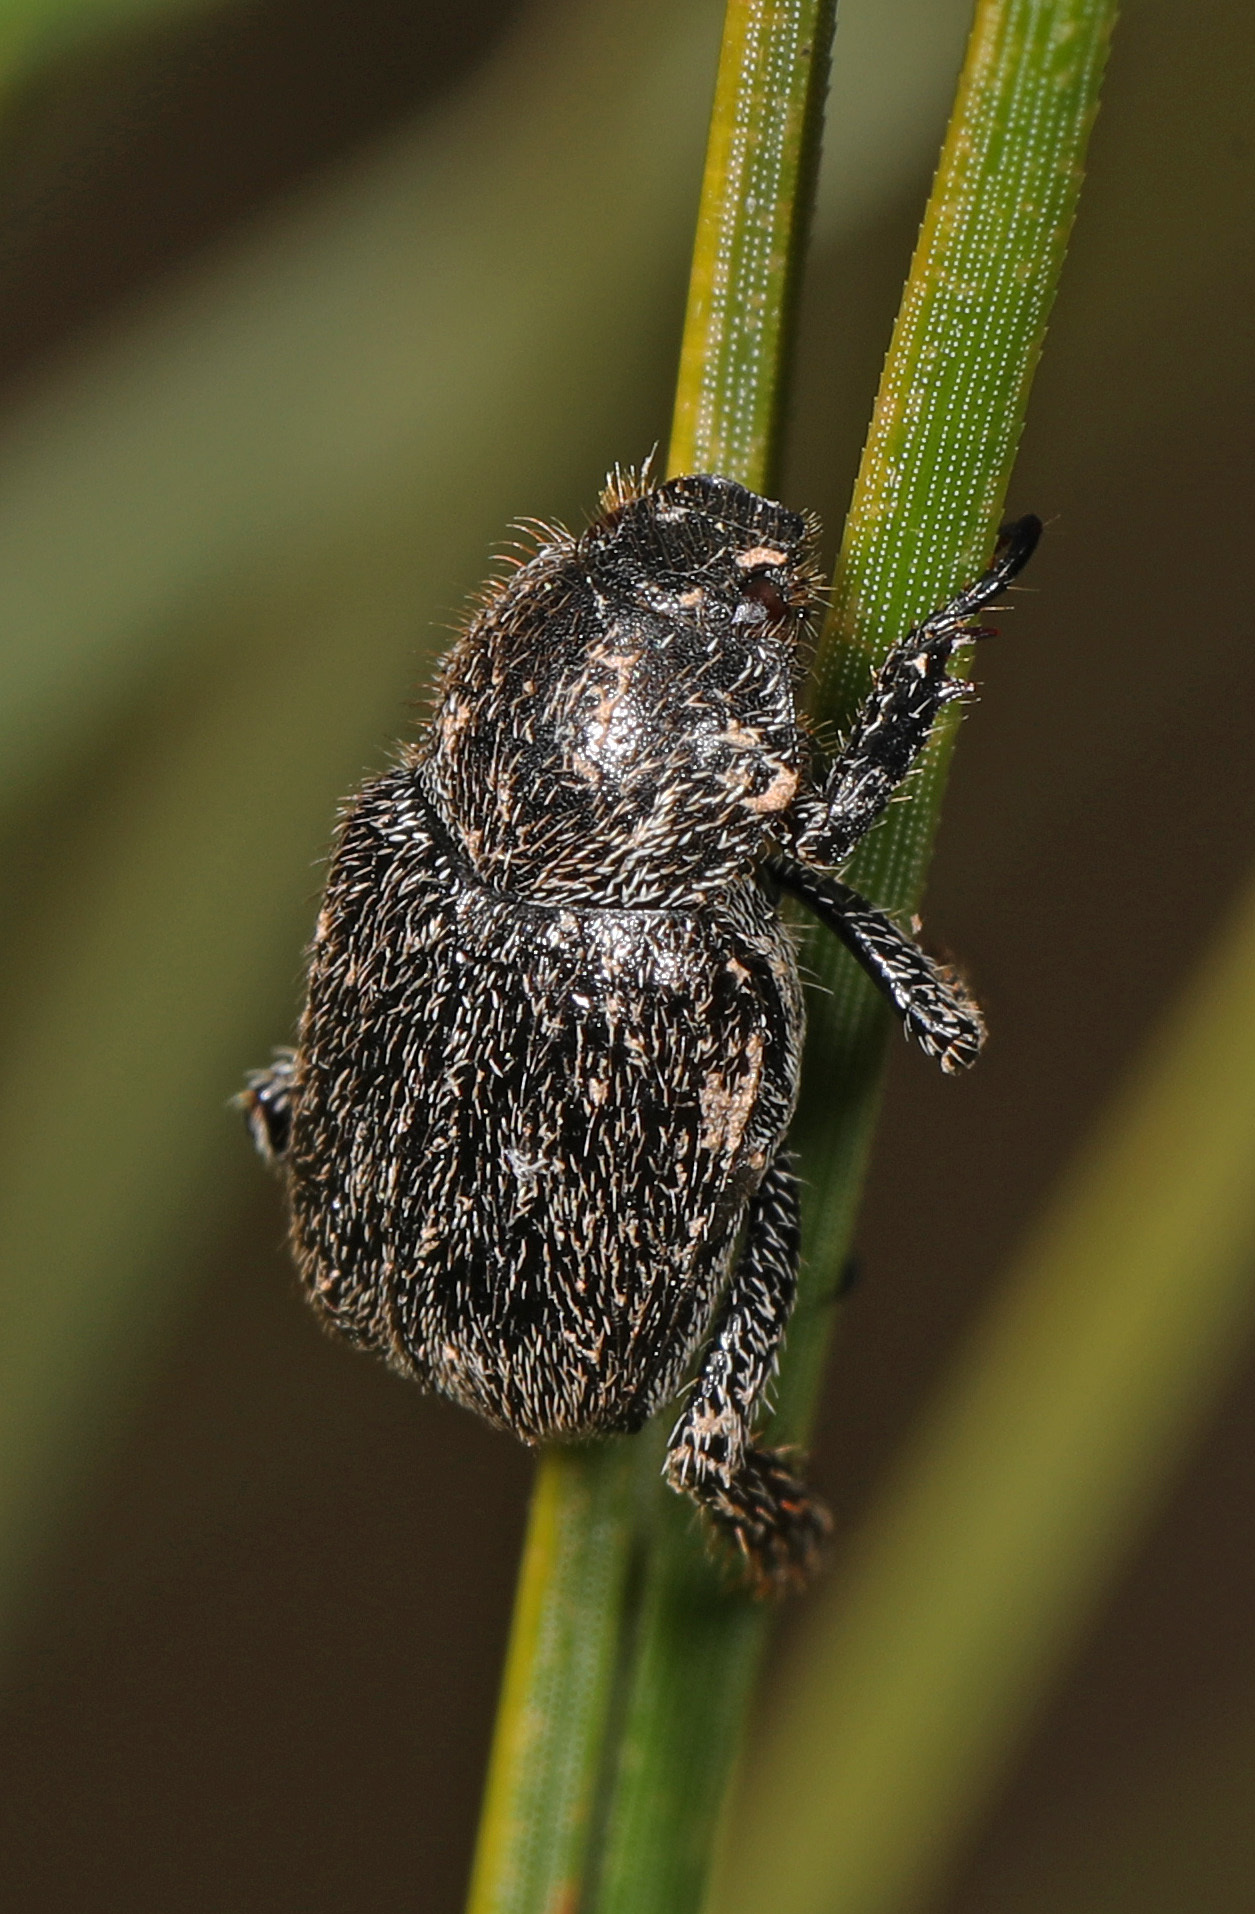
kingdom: Animalia
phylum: Arthropoda
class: Insecta
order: Coleoptera
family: Scarabaeidae
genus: Hoplia
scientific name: Hoplia trivialis
